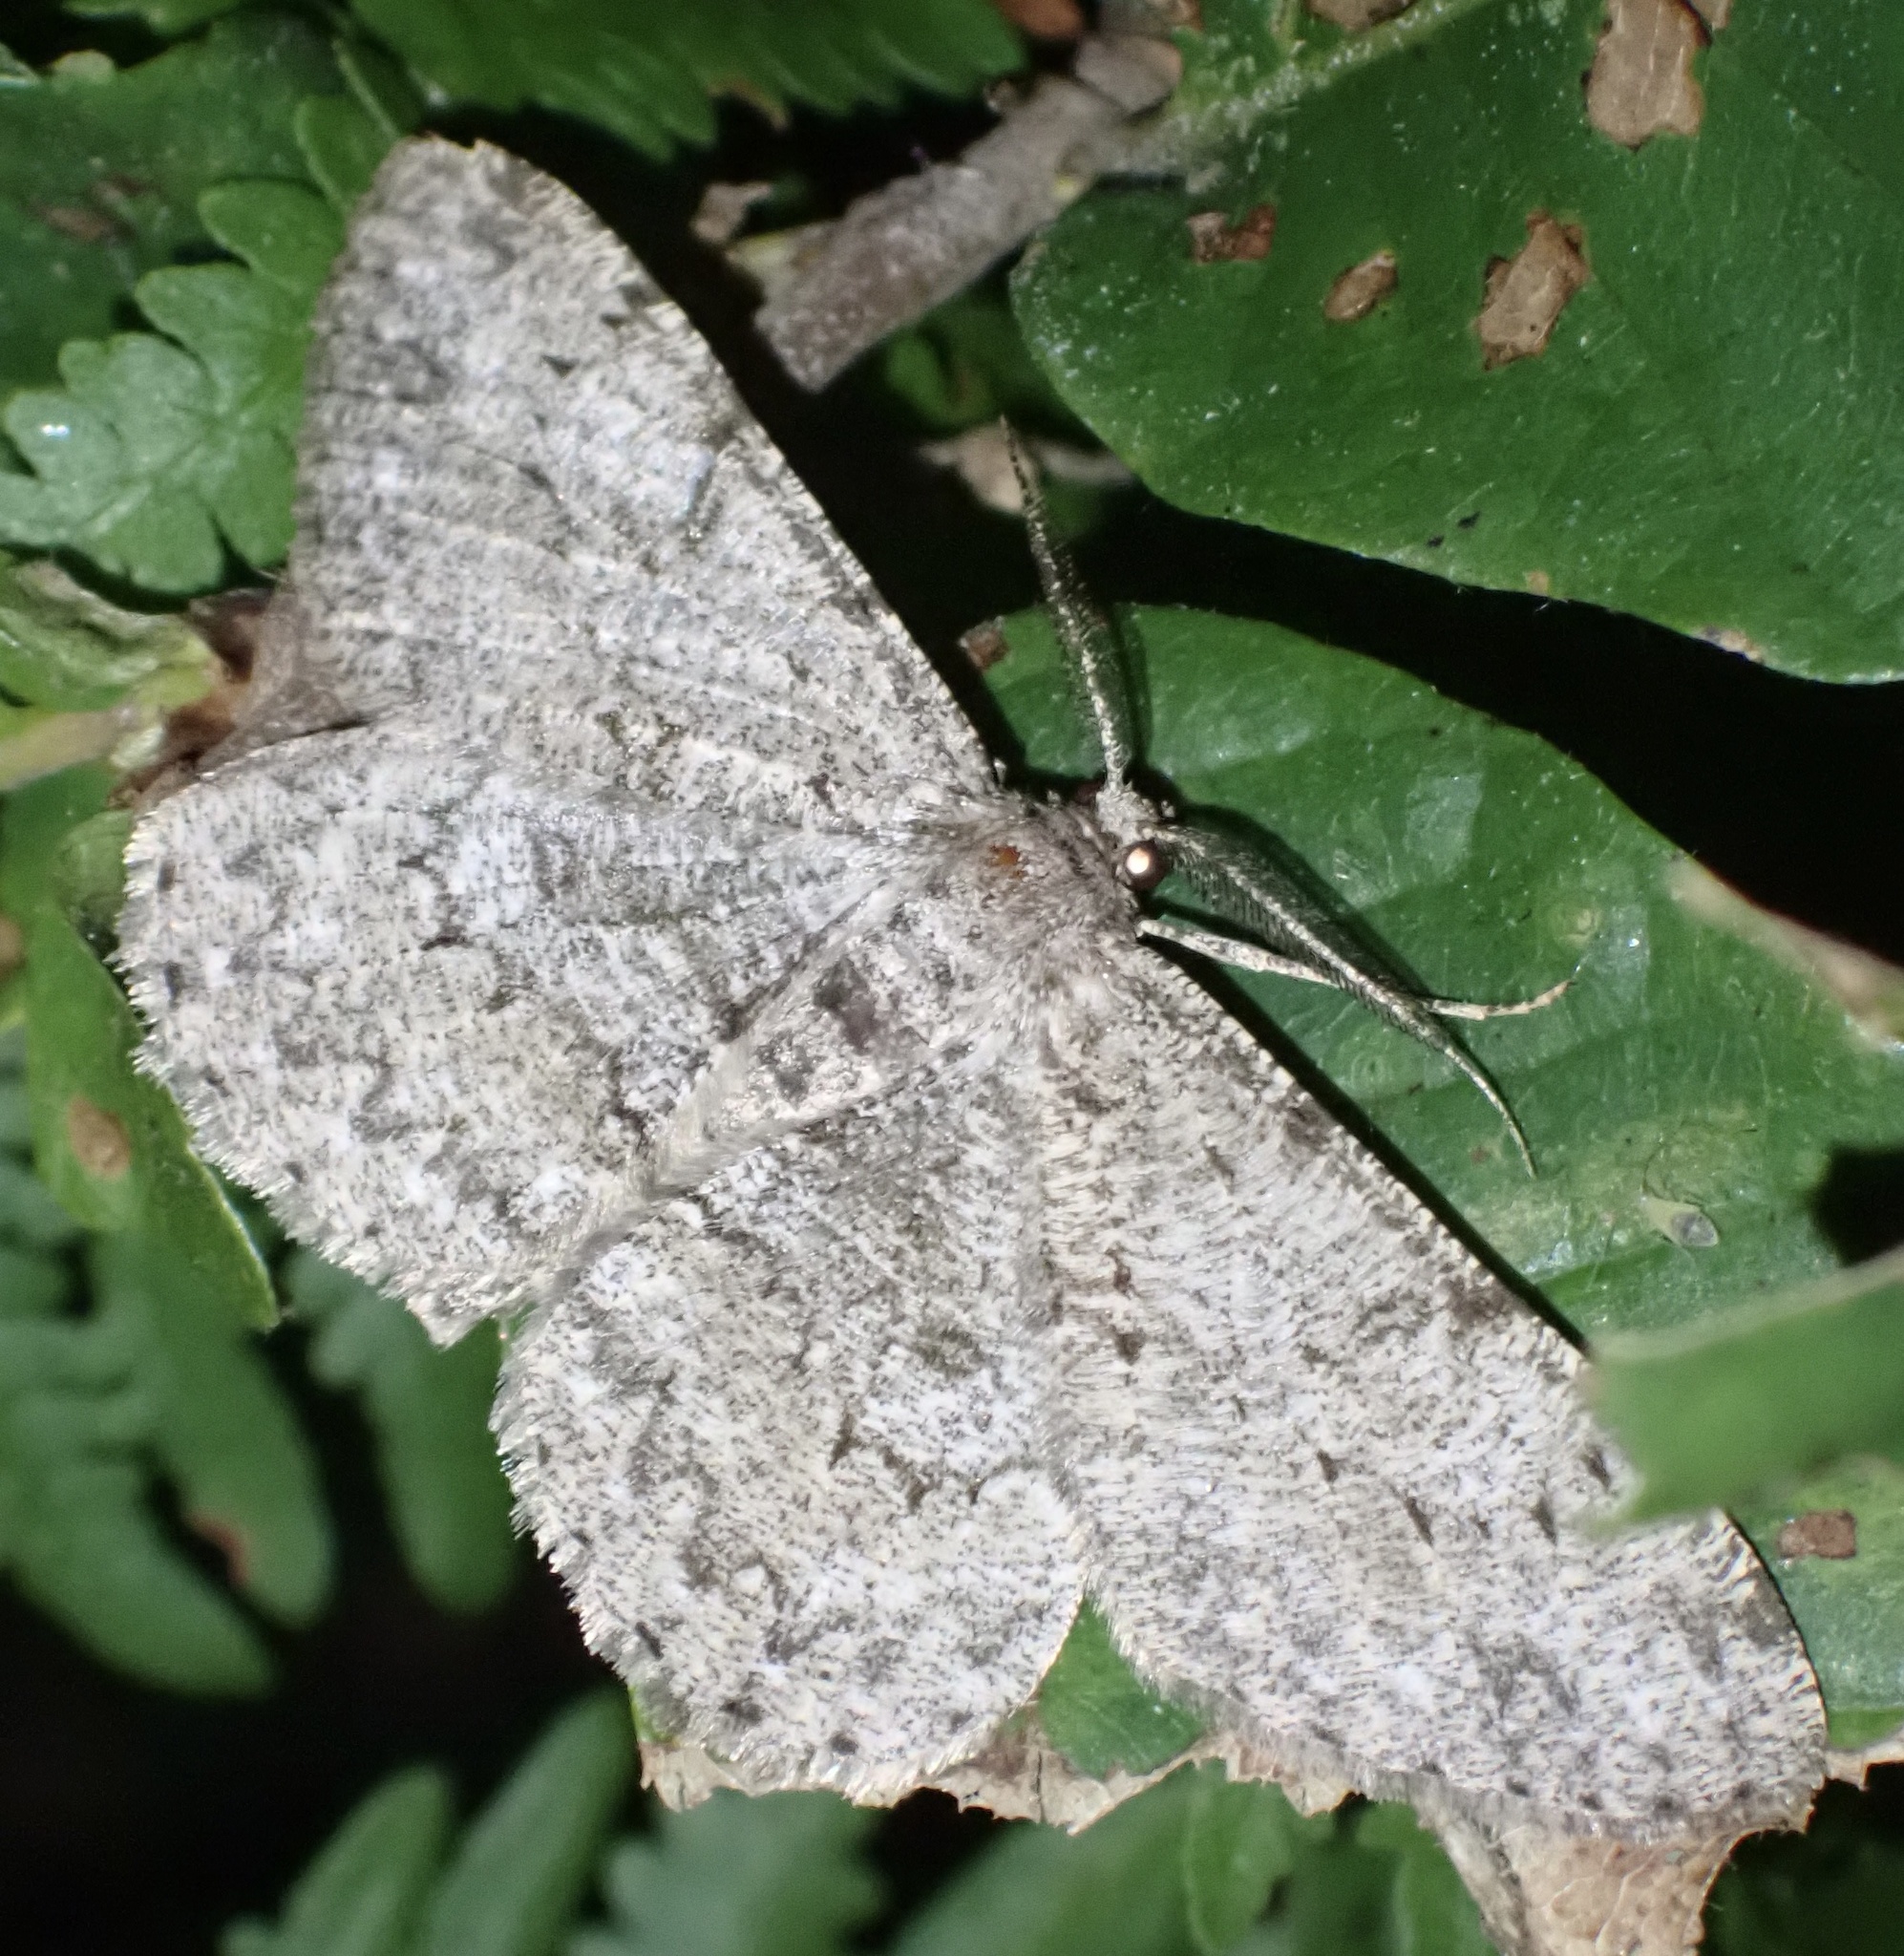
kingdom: Animalia
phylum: Arthropoda
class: Insecta
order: Lepidoptera
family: Geometridae
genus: Hypomecis
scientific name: Hypomecis punctinalis
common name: Pale oak beauty
